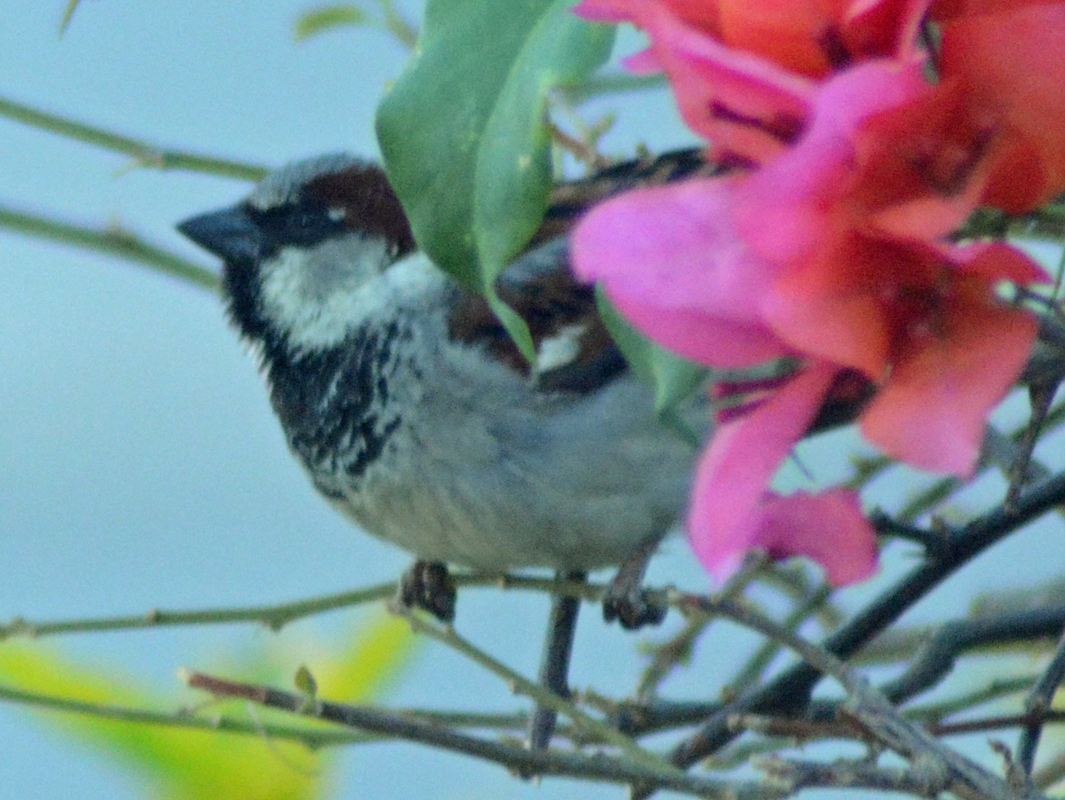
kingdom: Animalia
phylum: Chordata
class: Aves
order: Passeriformes
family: Passeridae
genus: Passer
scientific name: Passer domesticus
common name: House sparrow
